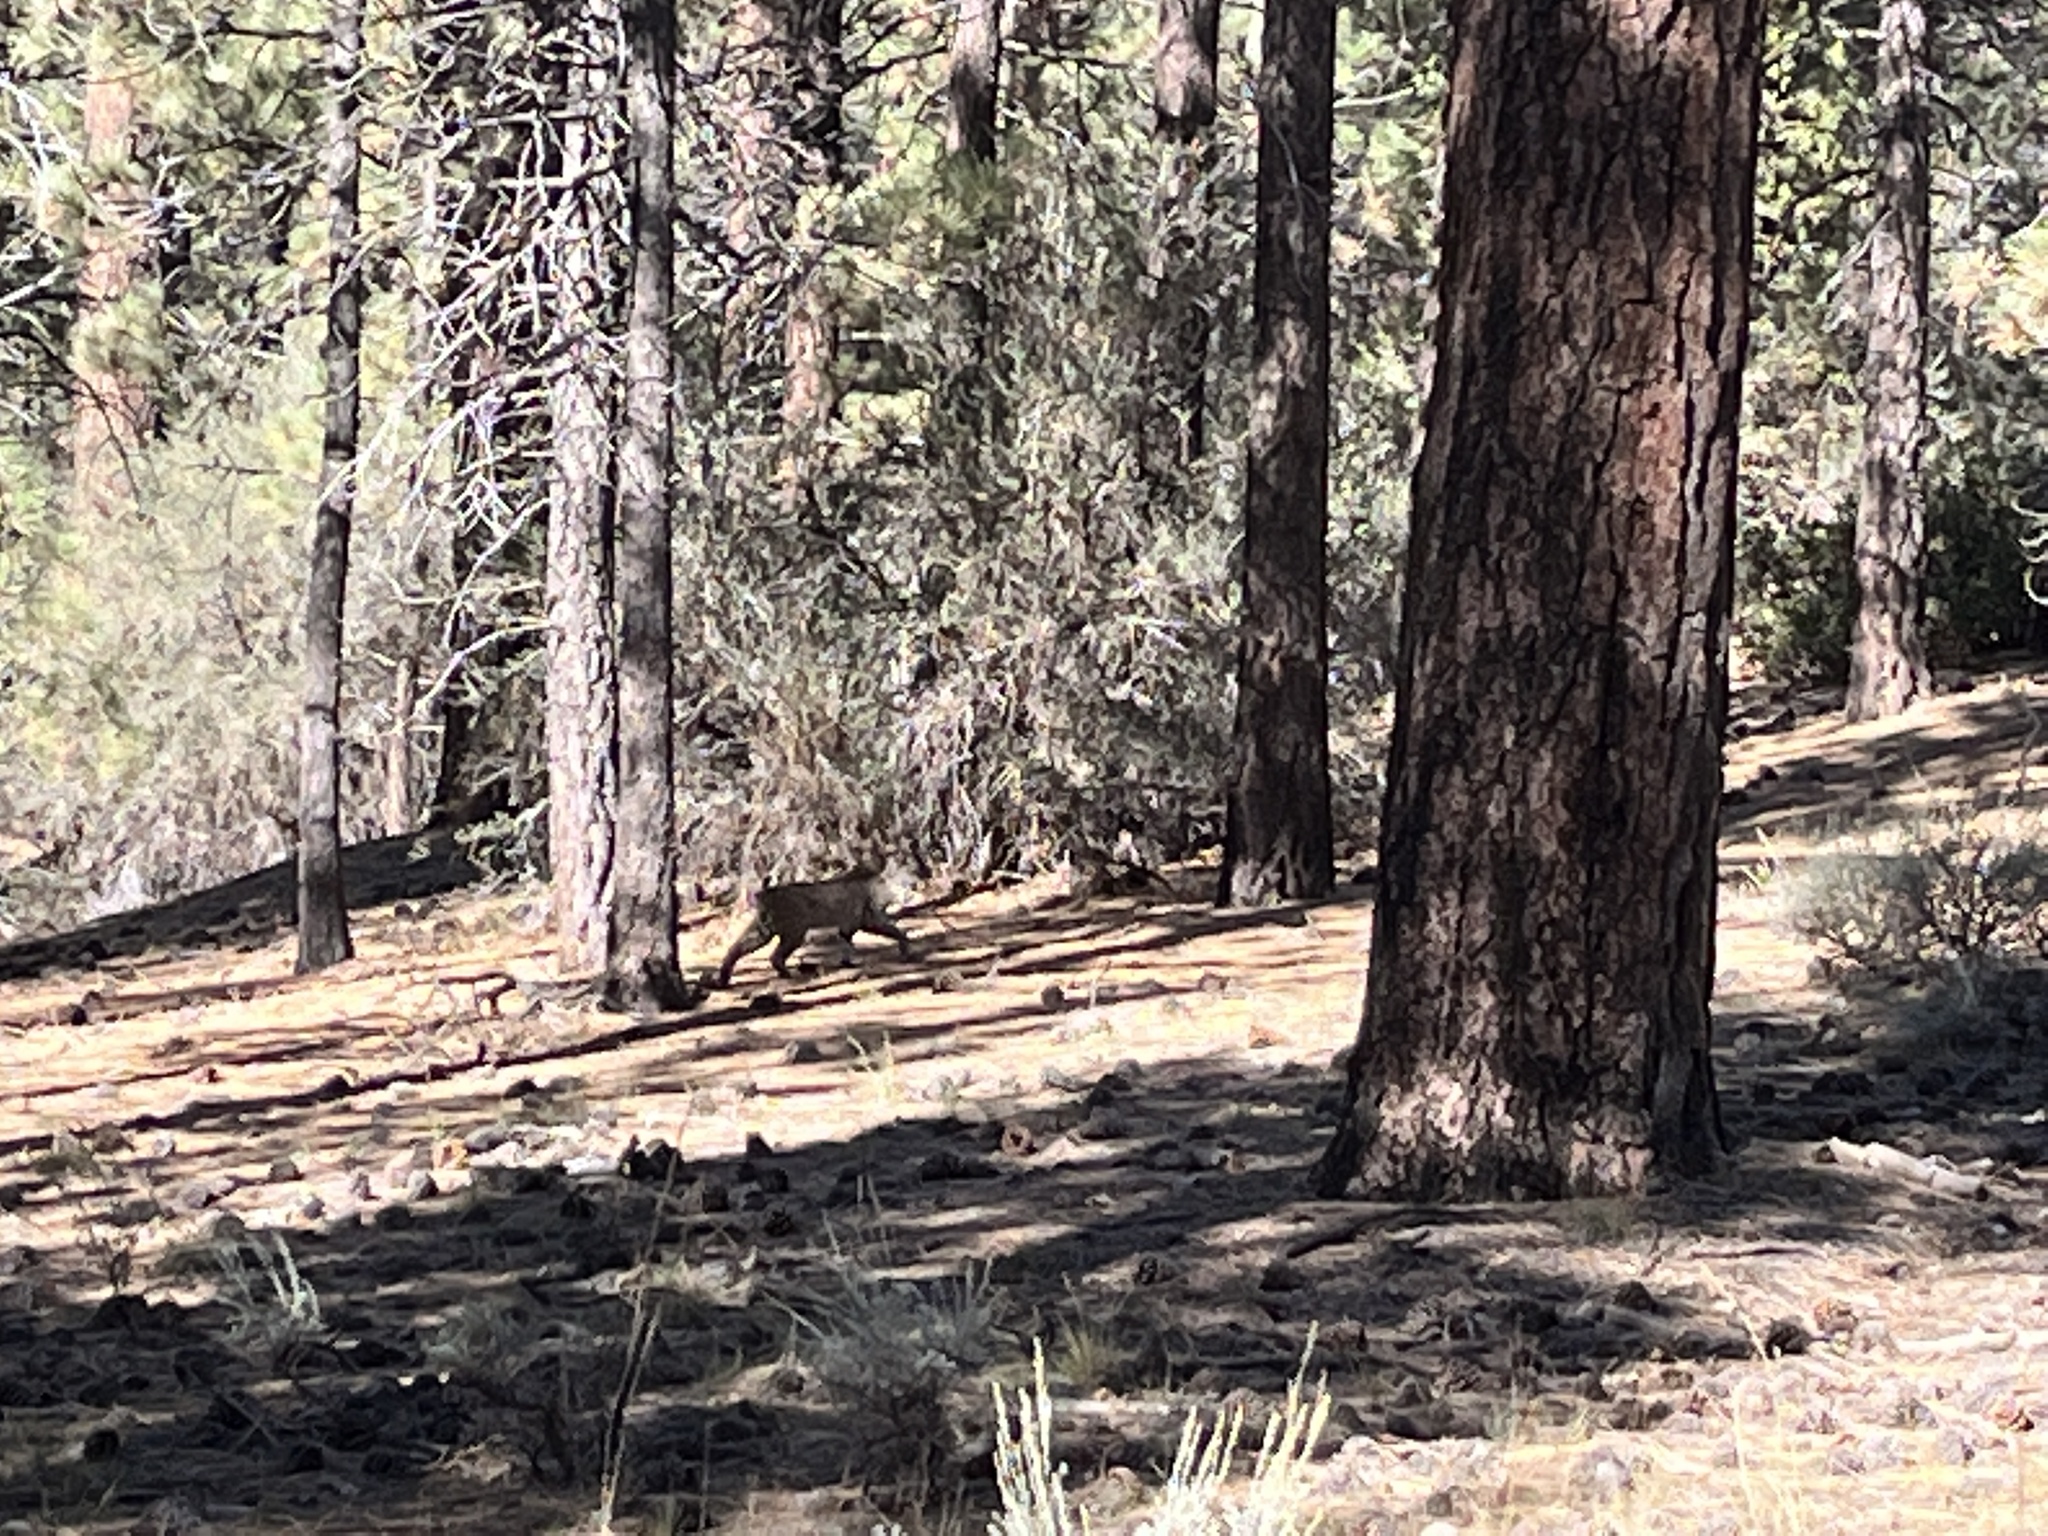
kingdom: Animalia
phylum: Chordata
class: Mammalia
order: Carnivora
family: Felidae
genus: Lynx
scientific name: Lynx rufus
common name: Bobcat
